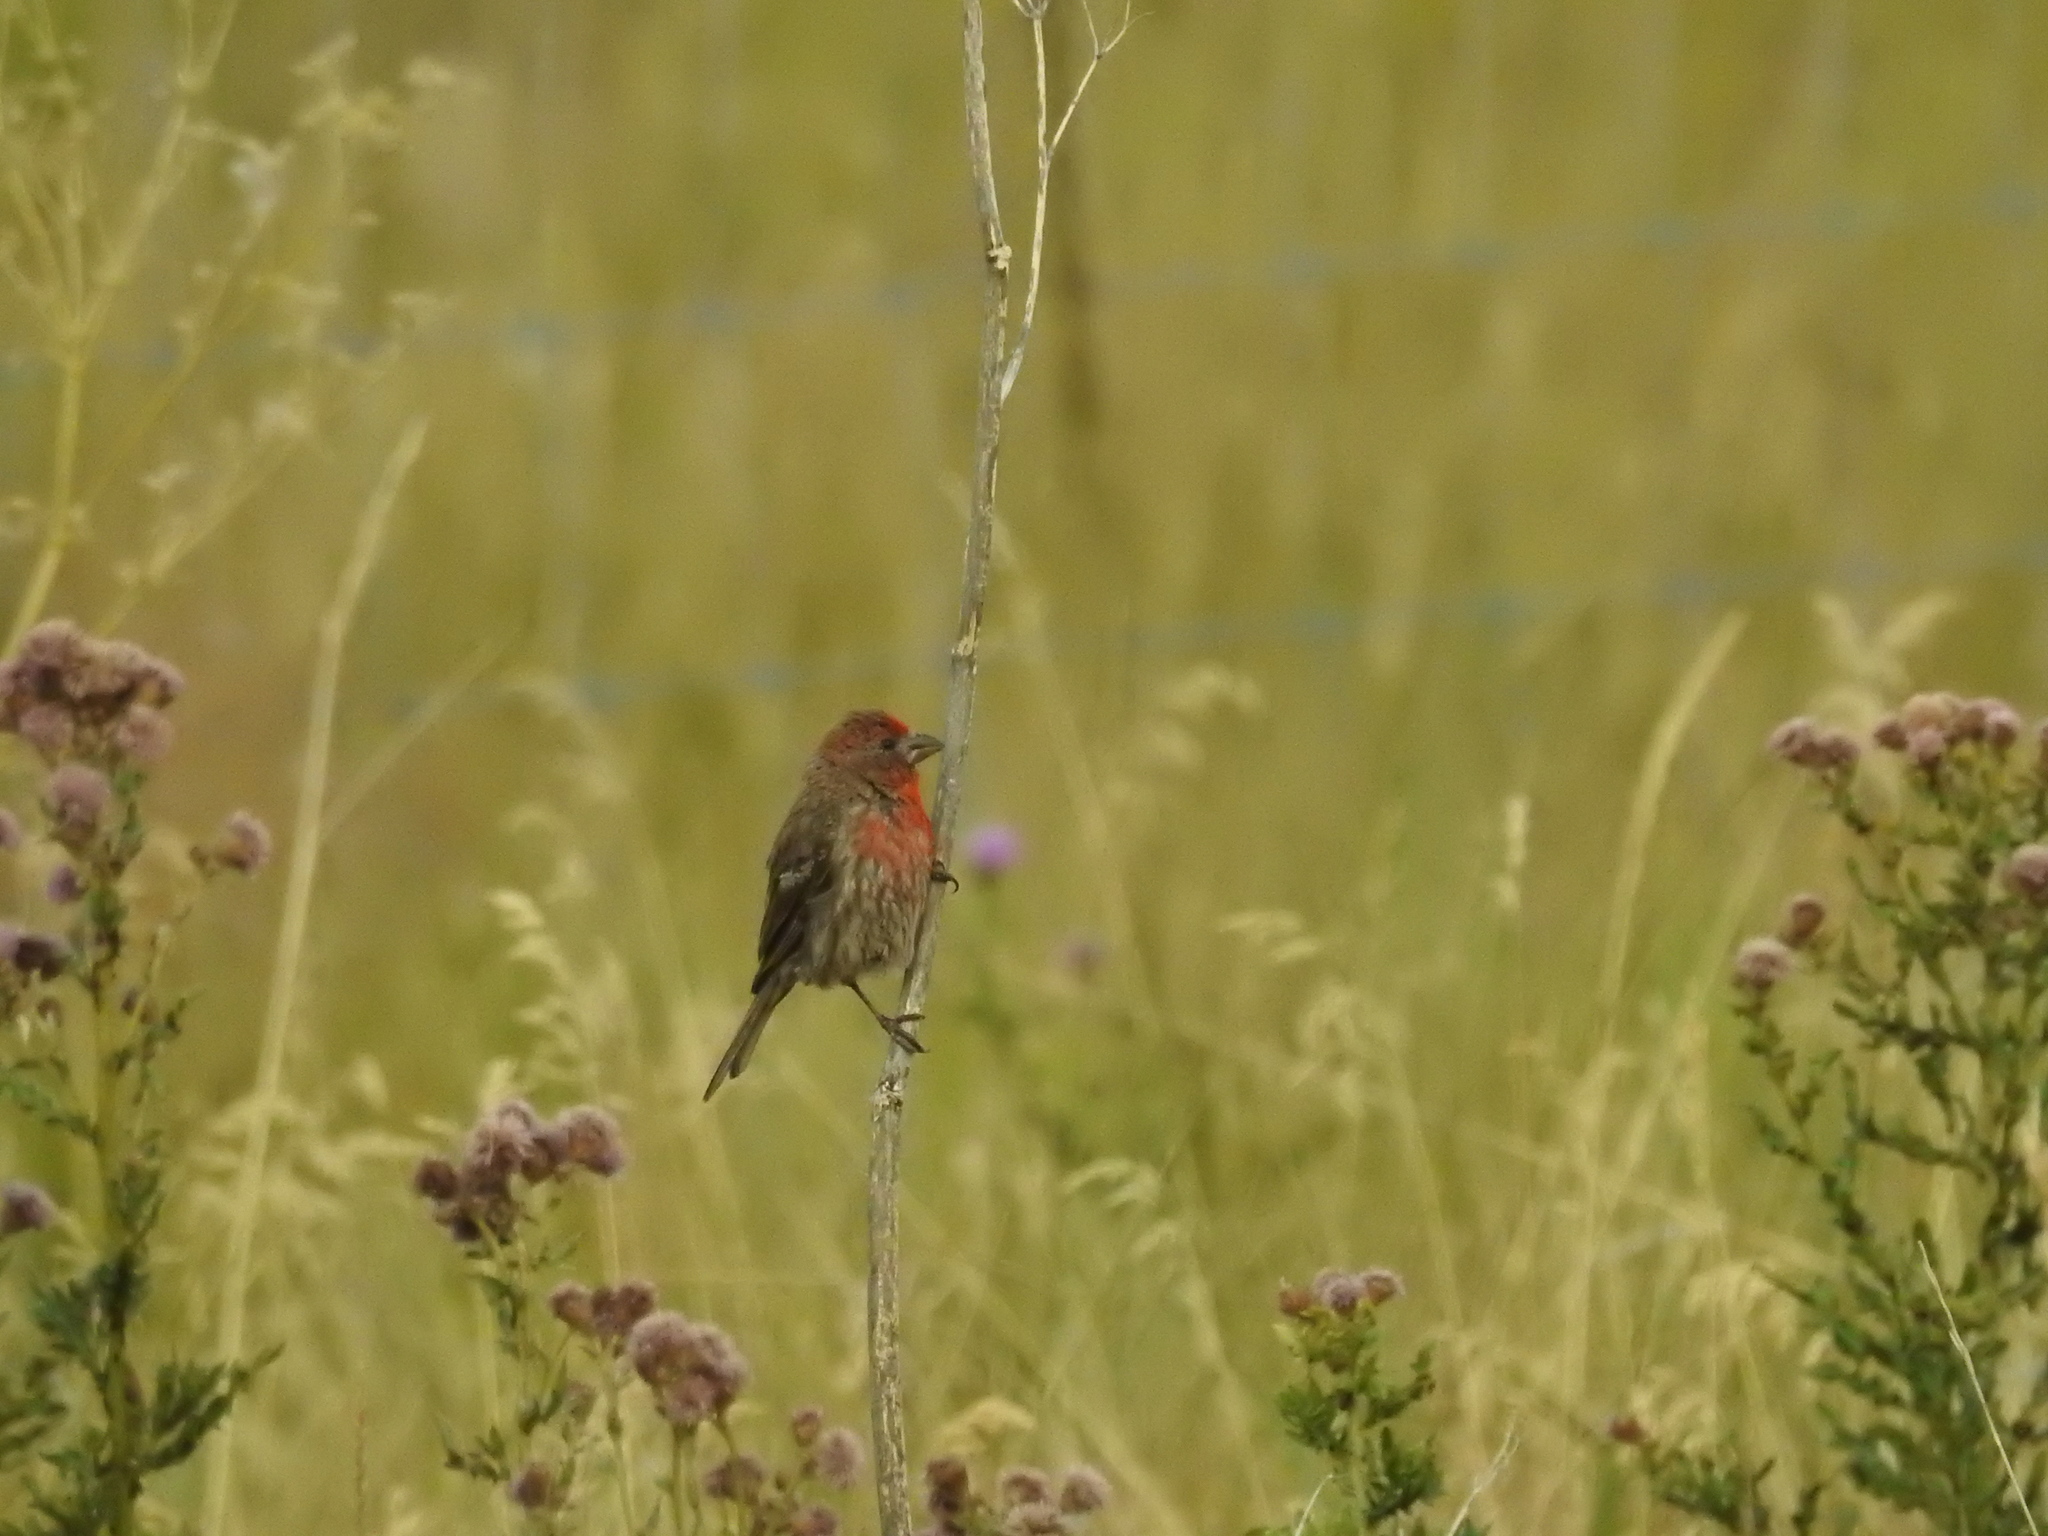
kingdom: Animalia
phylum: Chordata
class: Aves
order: Passeriformes
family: Fringillidae
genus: Haemorhous
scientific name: Haemorhous mexicanus
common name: House finch
